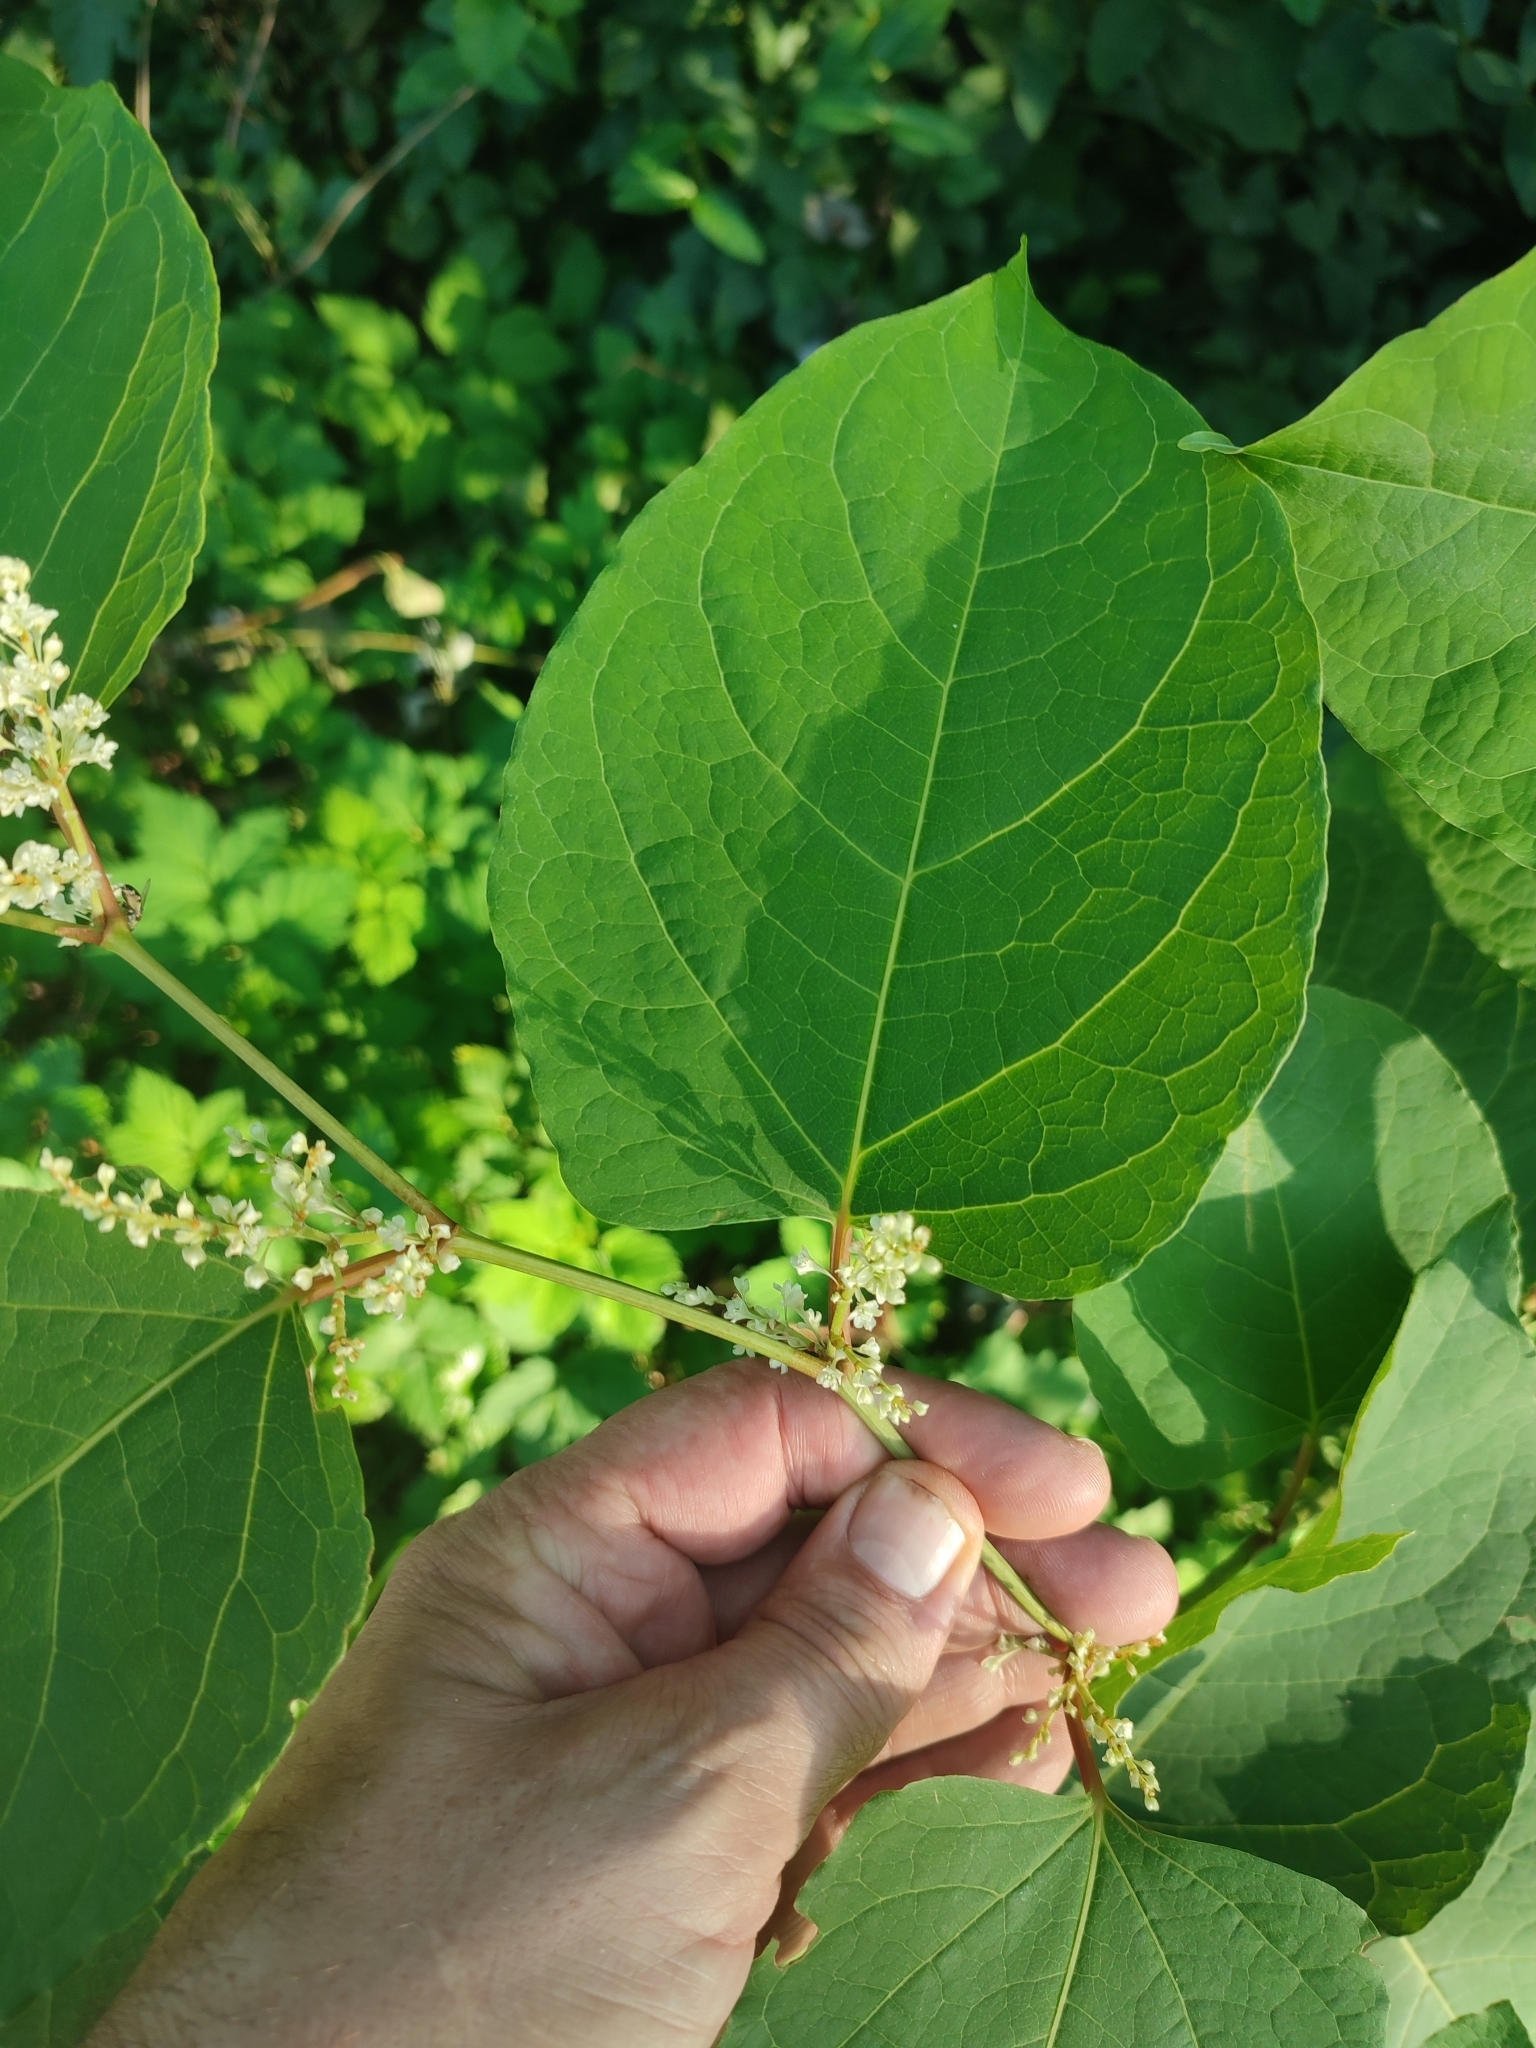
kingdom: Plantae
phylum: Tracheophyta
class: Magnoliopsida
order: Caryophyllales
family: Polygonaceae
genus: Reynoutria
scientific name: Reynoutria japonica
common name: Japanese knotweed
